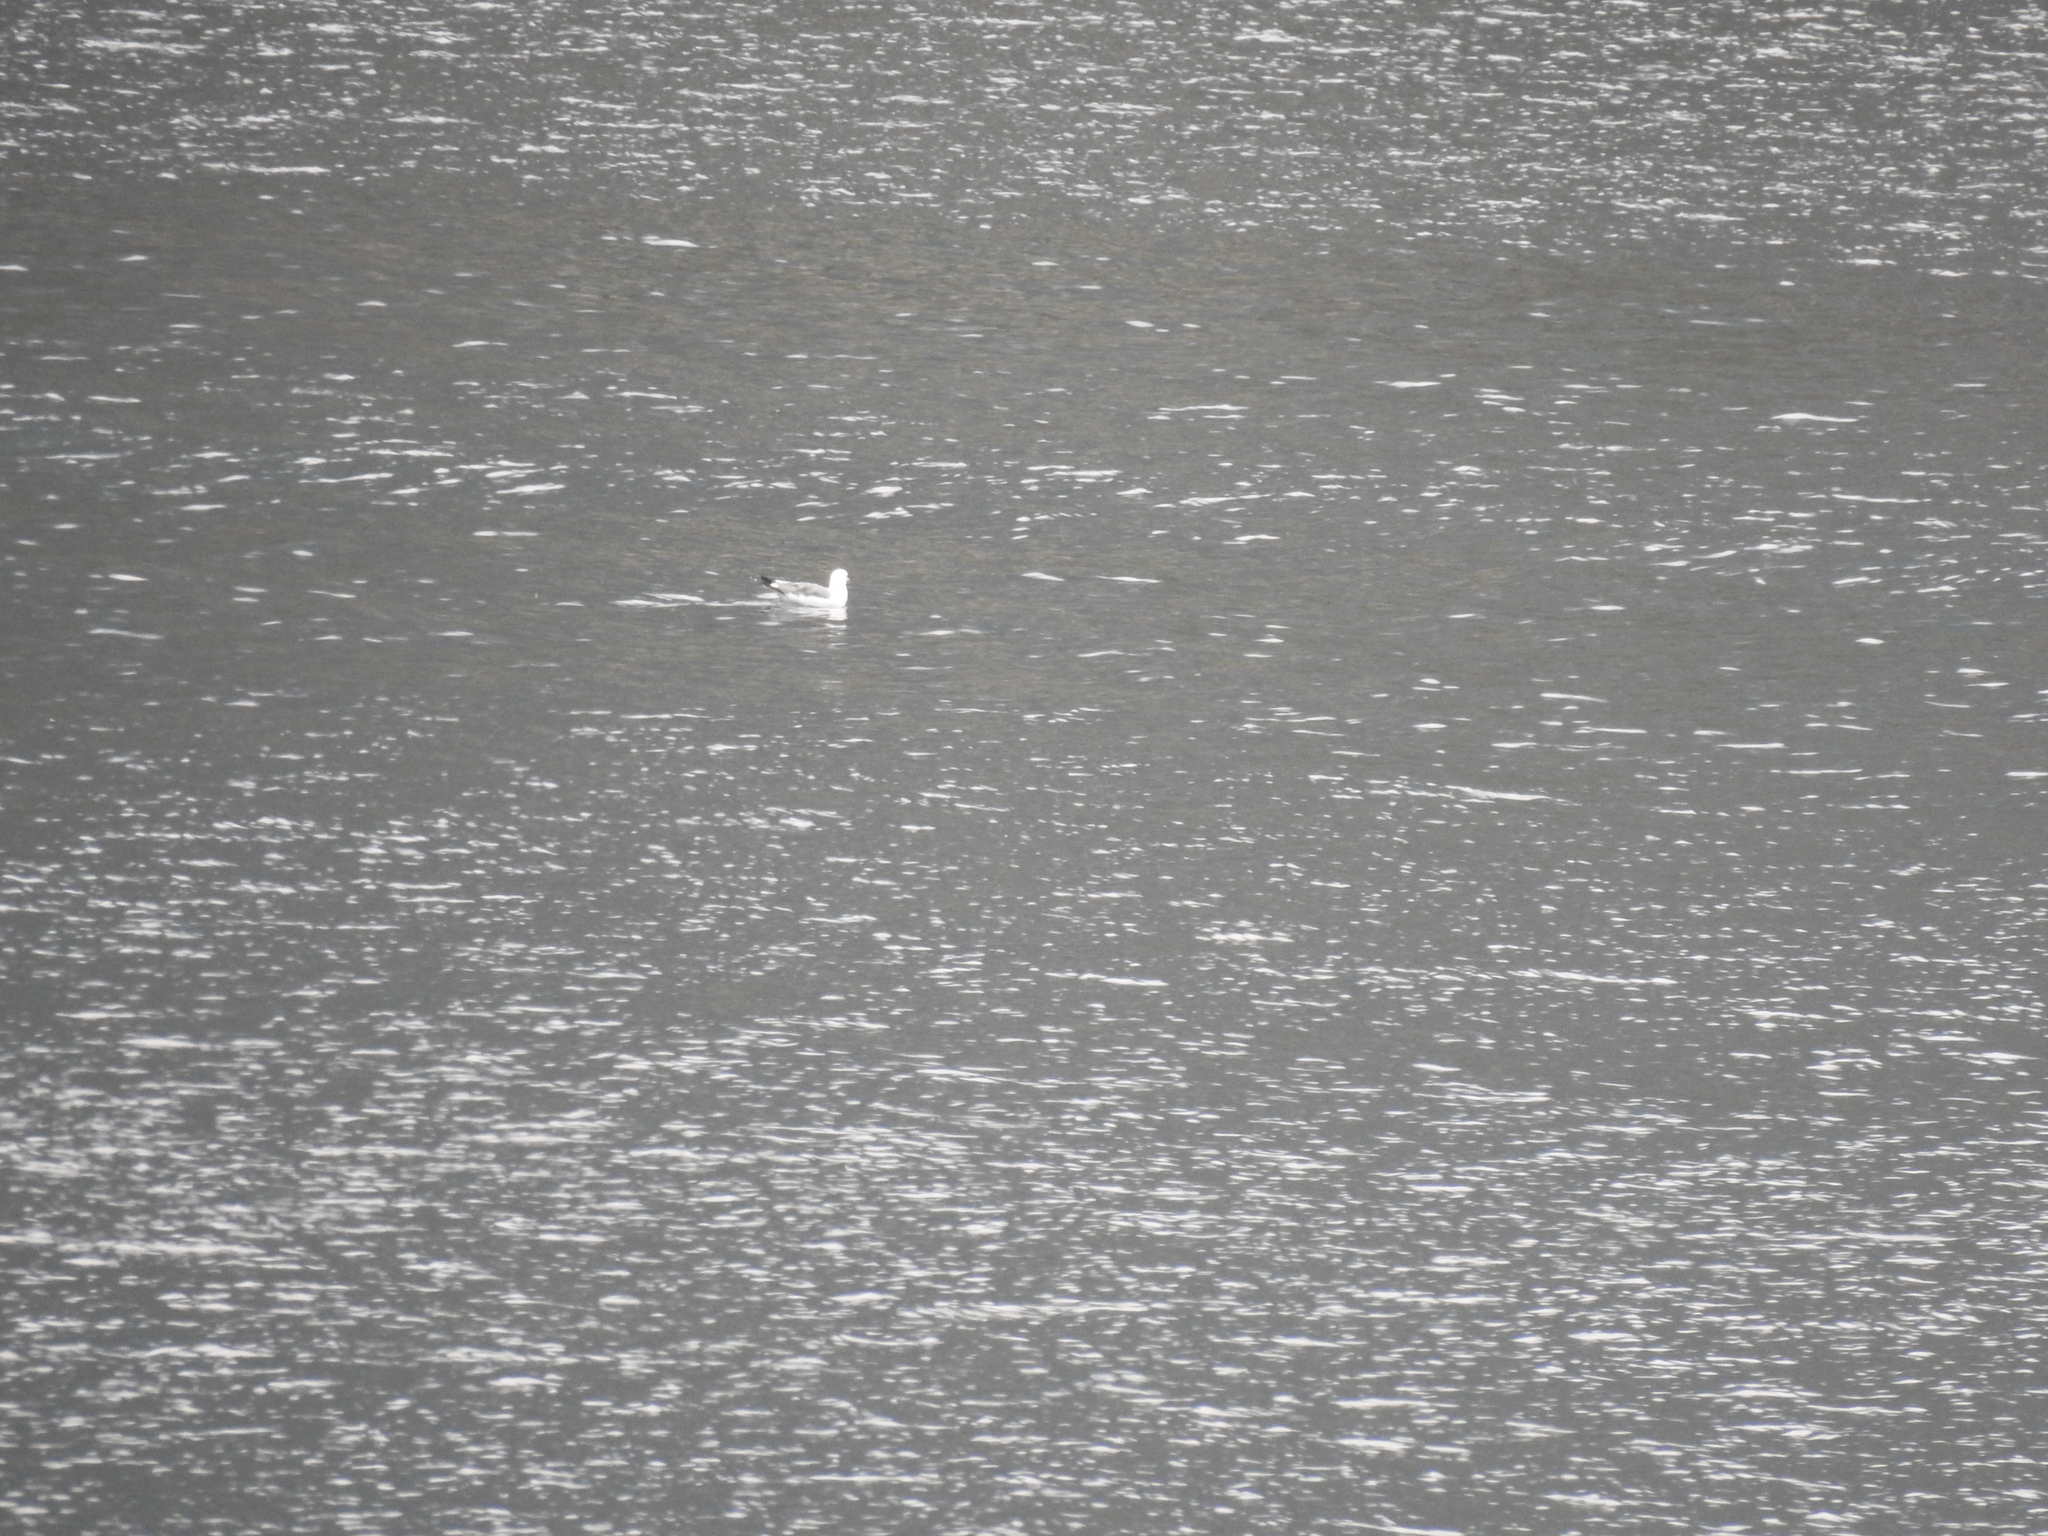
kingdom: Animalia
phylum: Chordata
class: Aves
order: Charadriiformes
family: Laridae
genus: Larus
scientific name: Larus
